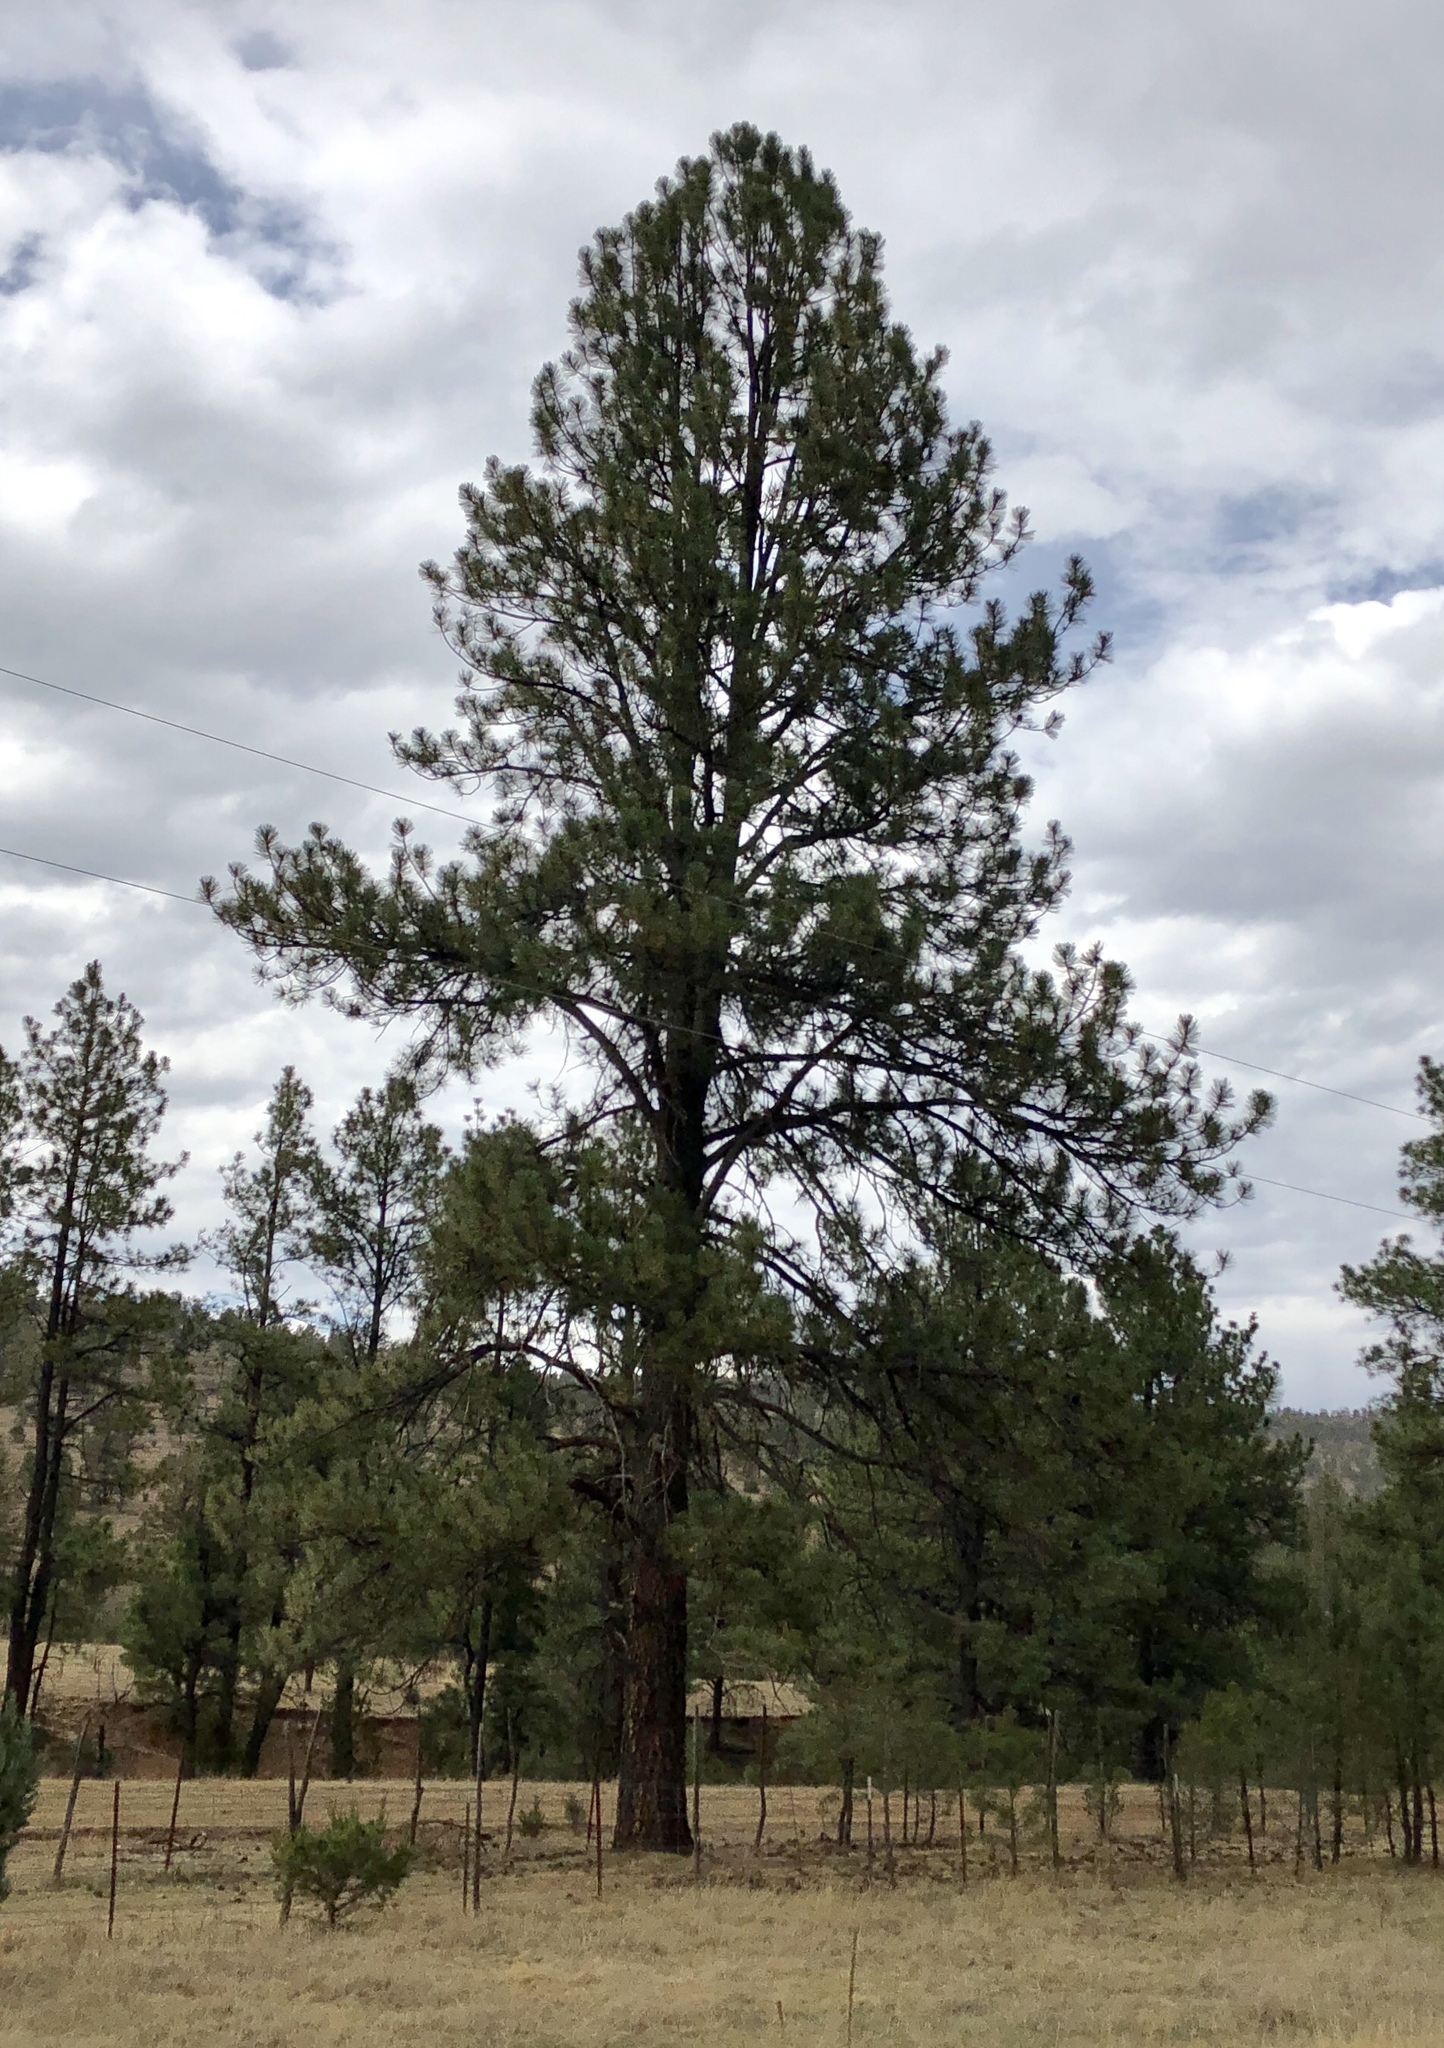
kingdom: Plantae
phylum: Tracheophyta
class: Pinopsida
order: Pinales
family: Pinaceae
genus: Pinus
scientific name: Pinus ponderosa
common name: Western yellow-pine
